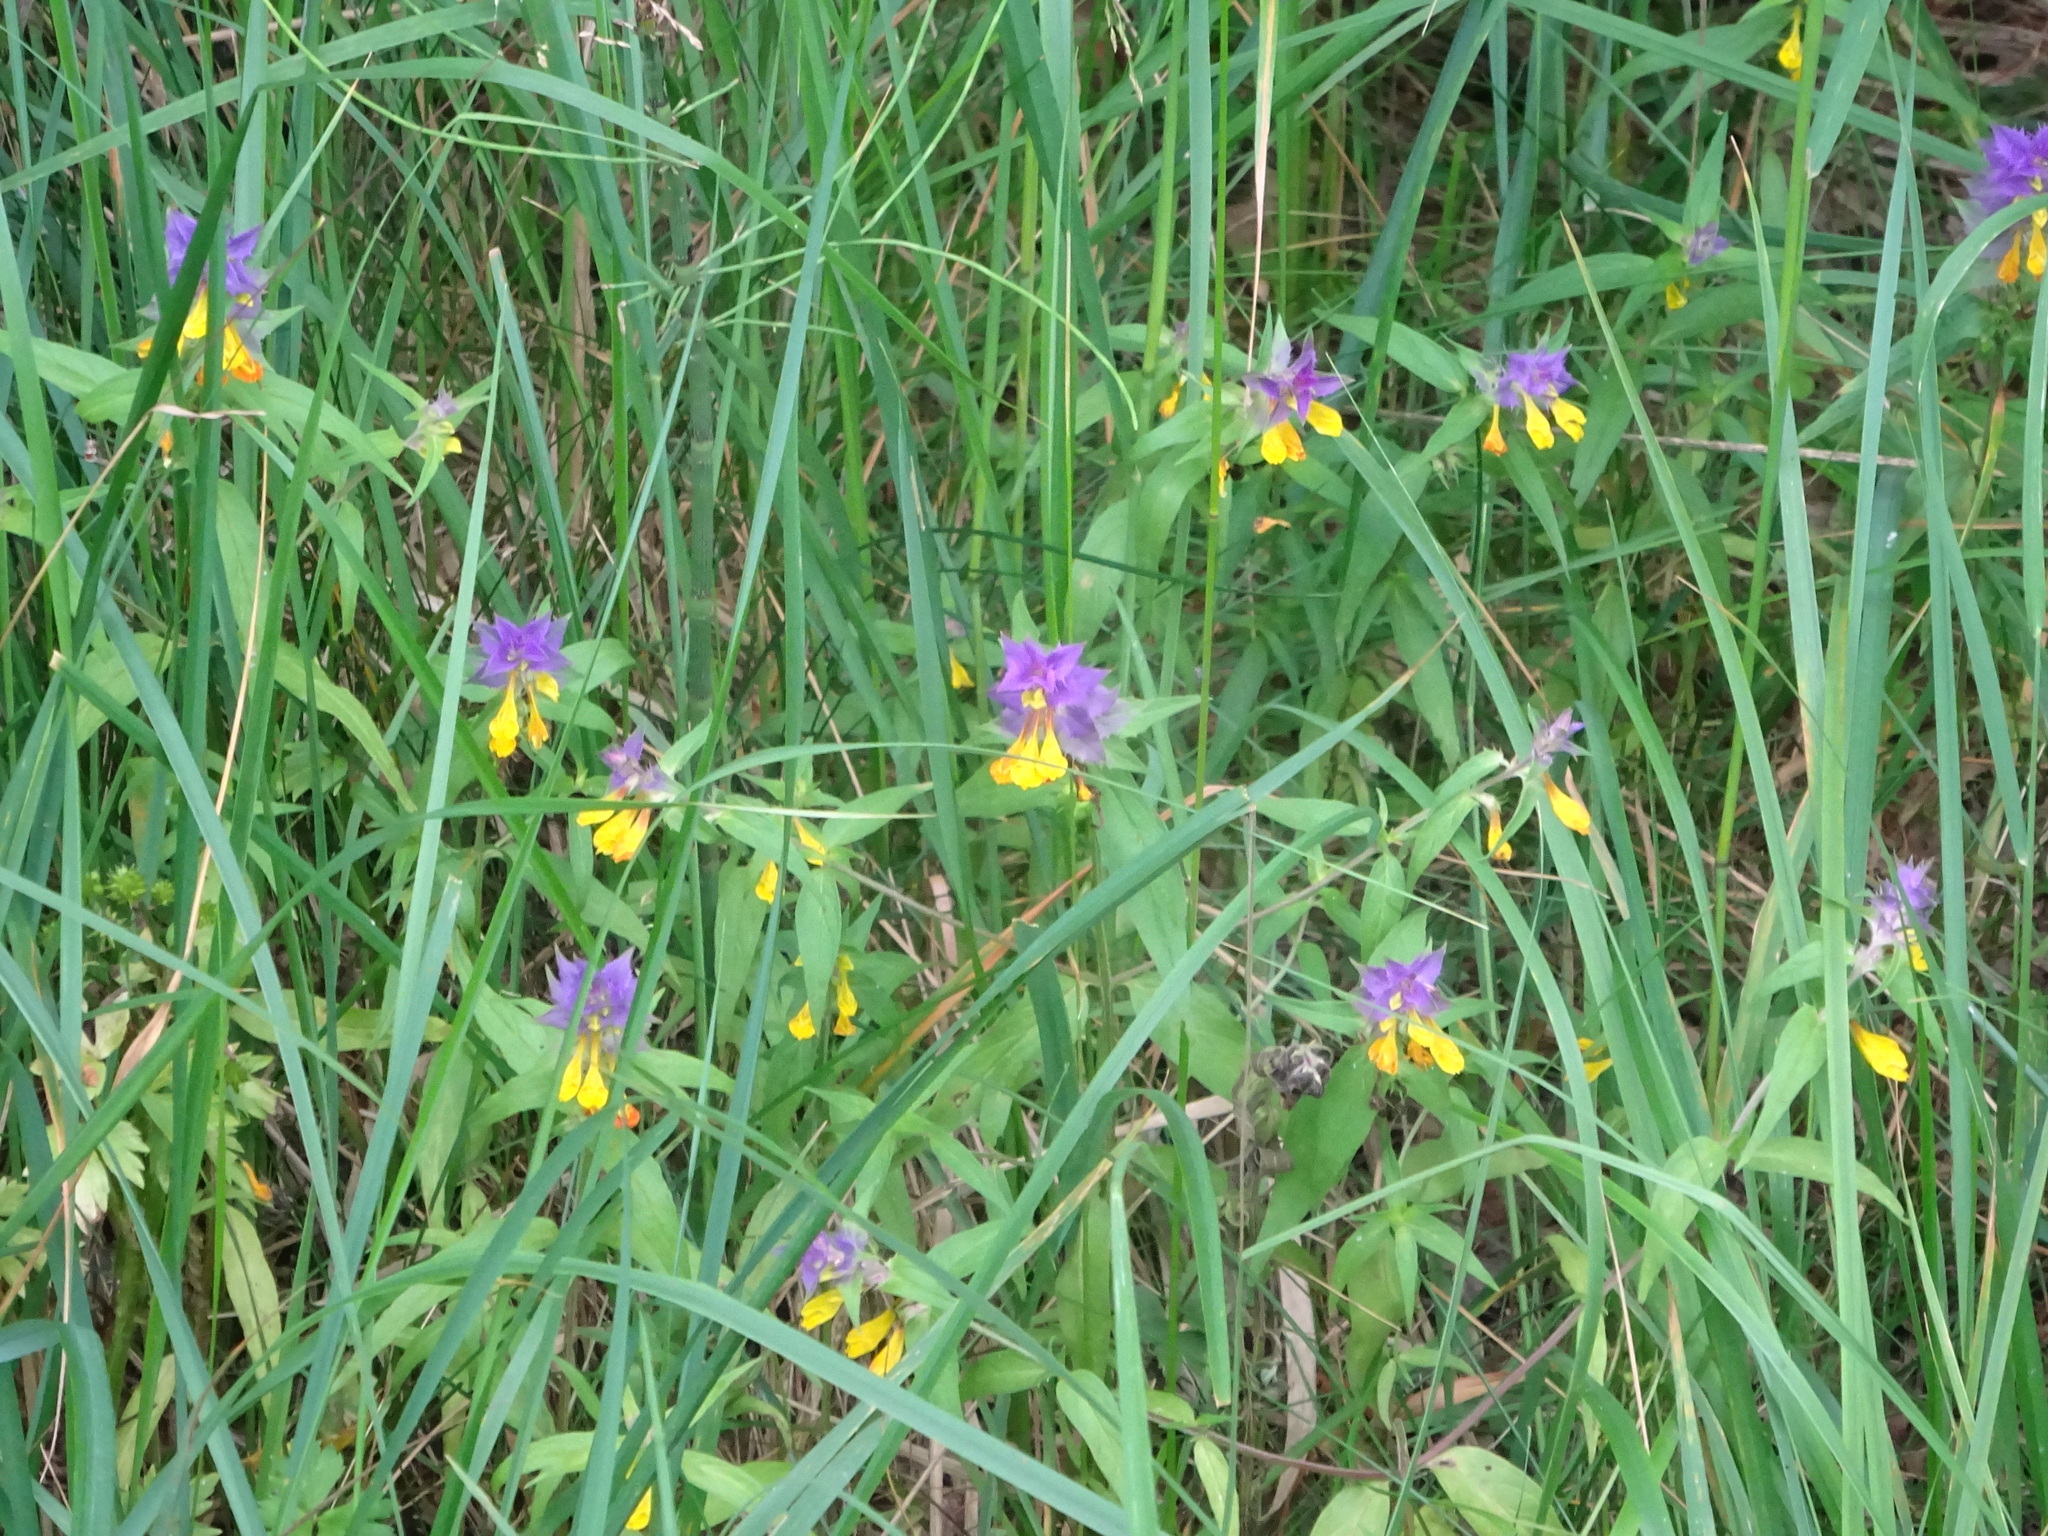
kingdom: Plantae
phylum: Tracheophyta
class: Magnoliopsida
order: Lamiales
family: Orobanchaceae
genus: Melampyrum
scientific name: Melampyrum nemorosum
